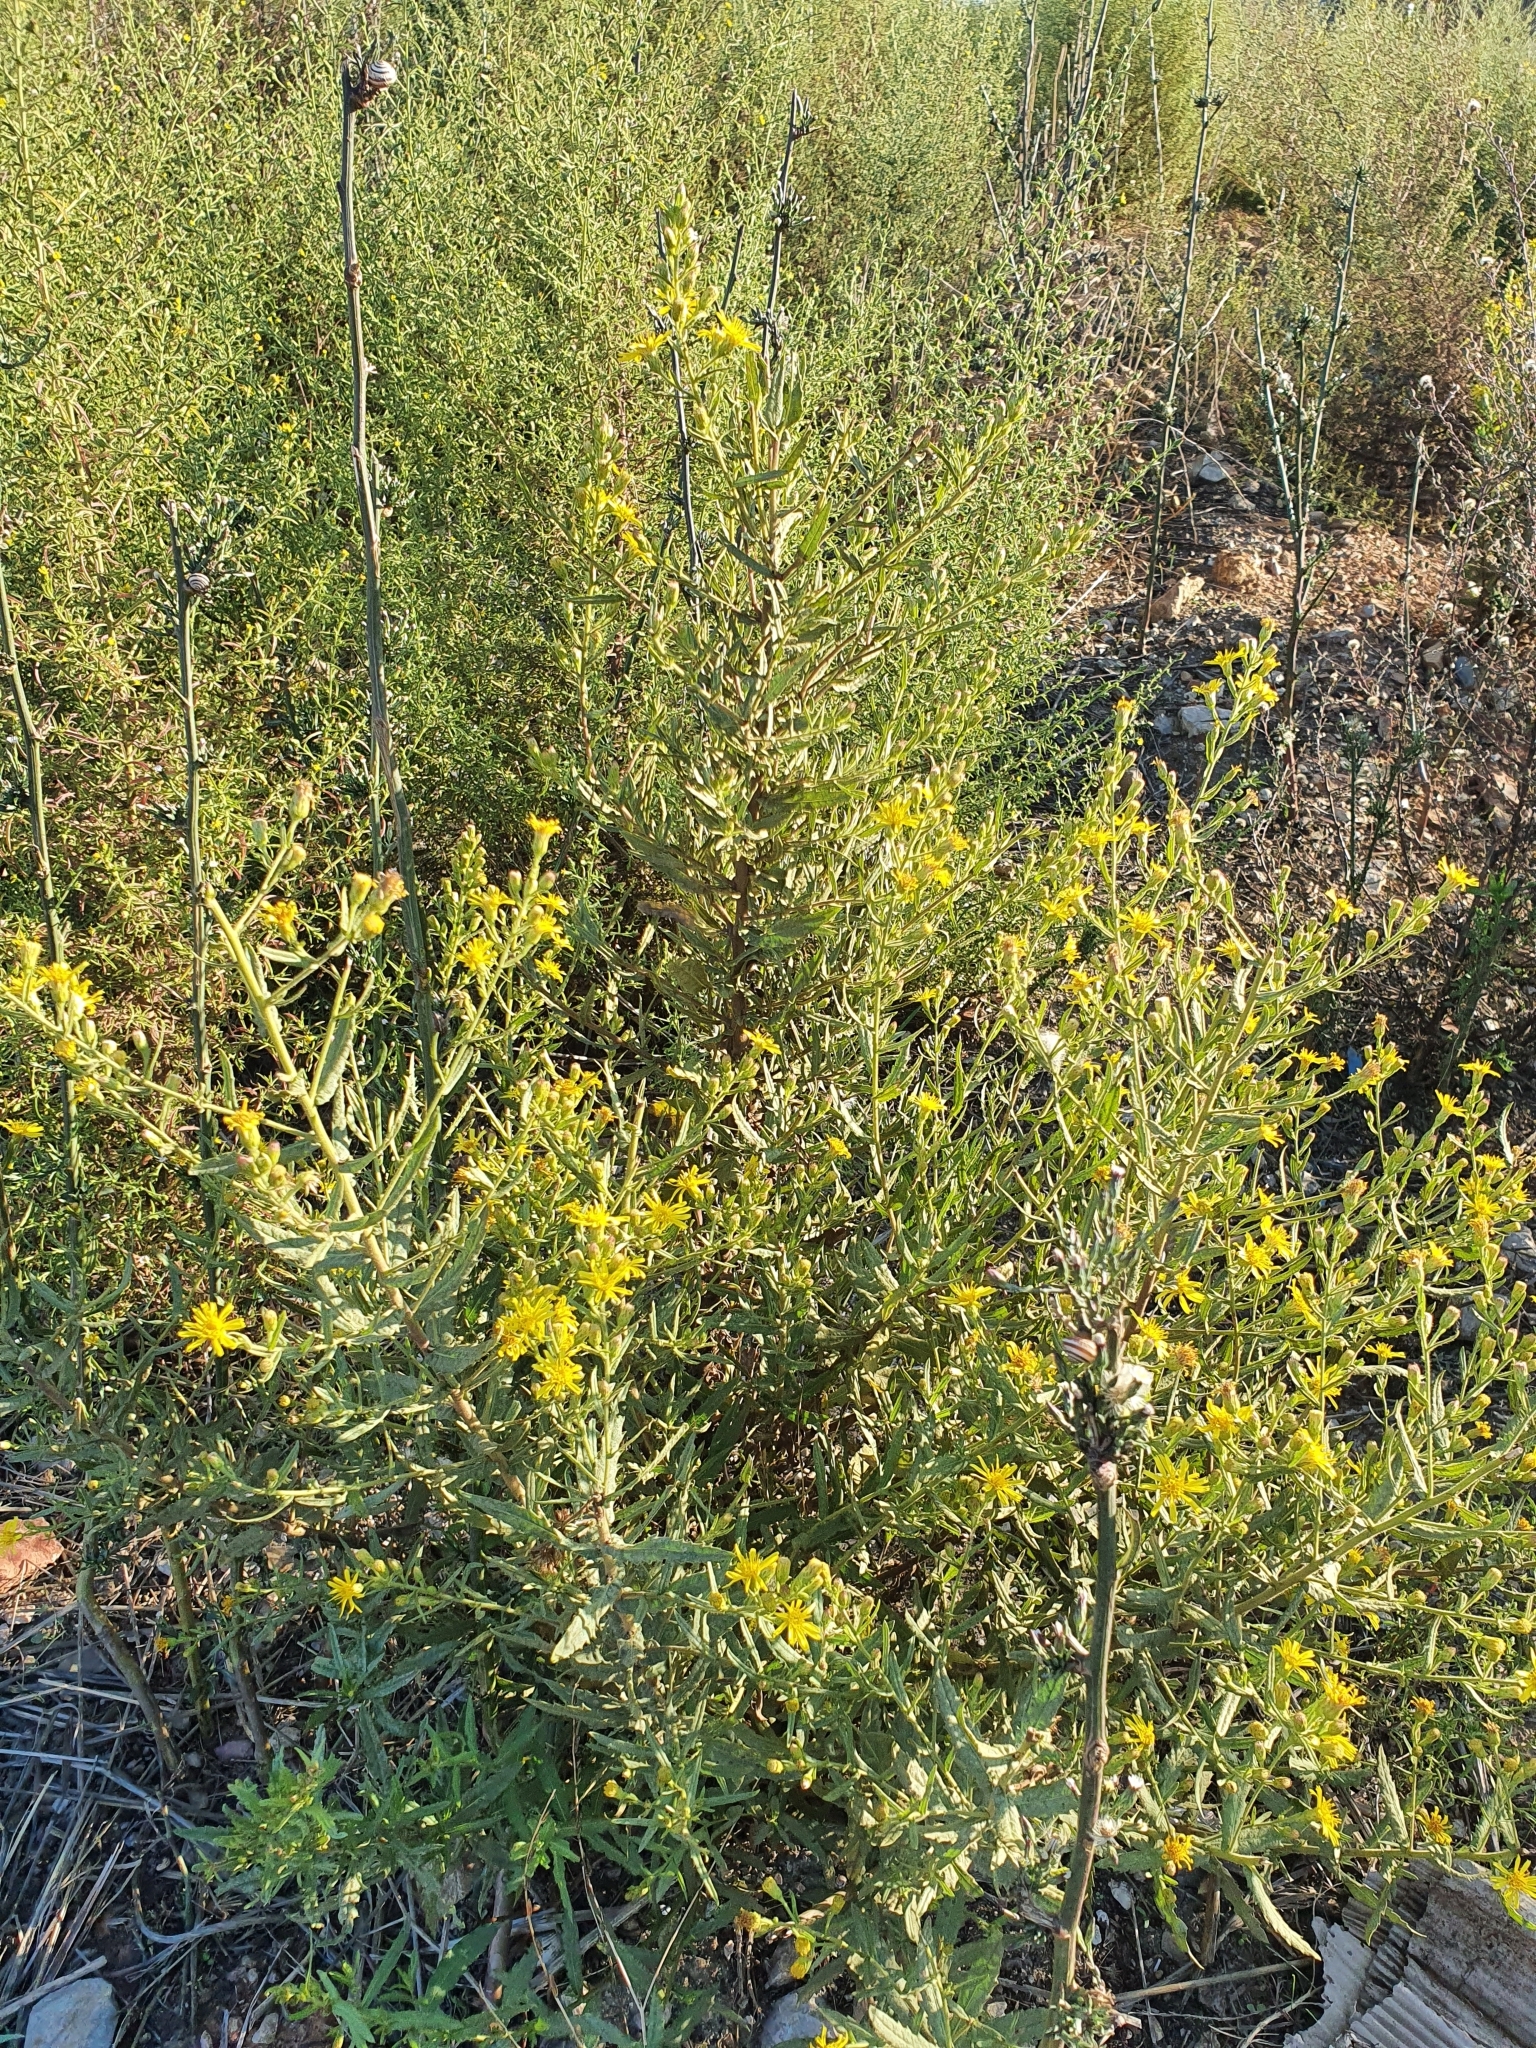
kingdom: Plantae
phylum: Tracheophyta
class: Magnoliopsida
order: Asterales
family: Asteraceae
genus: Dittrichia
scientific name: Dittrichia viscosa
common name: Woody fleabane
